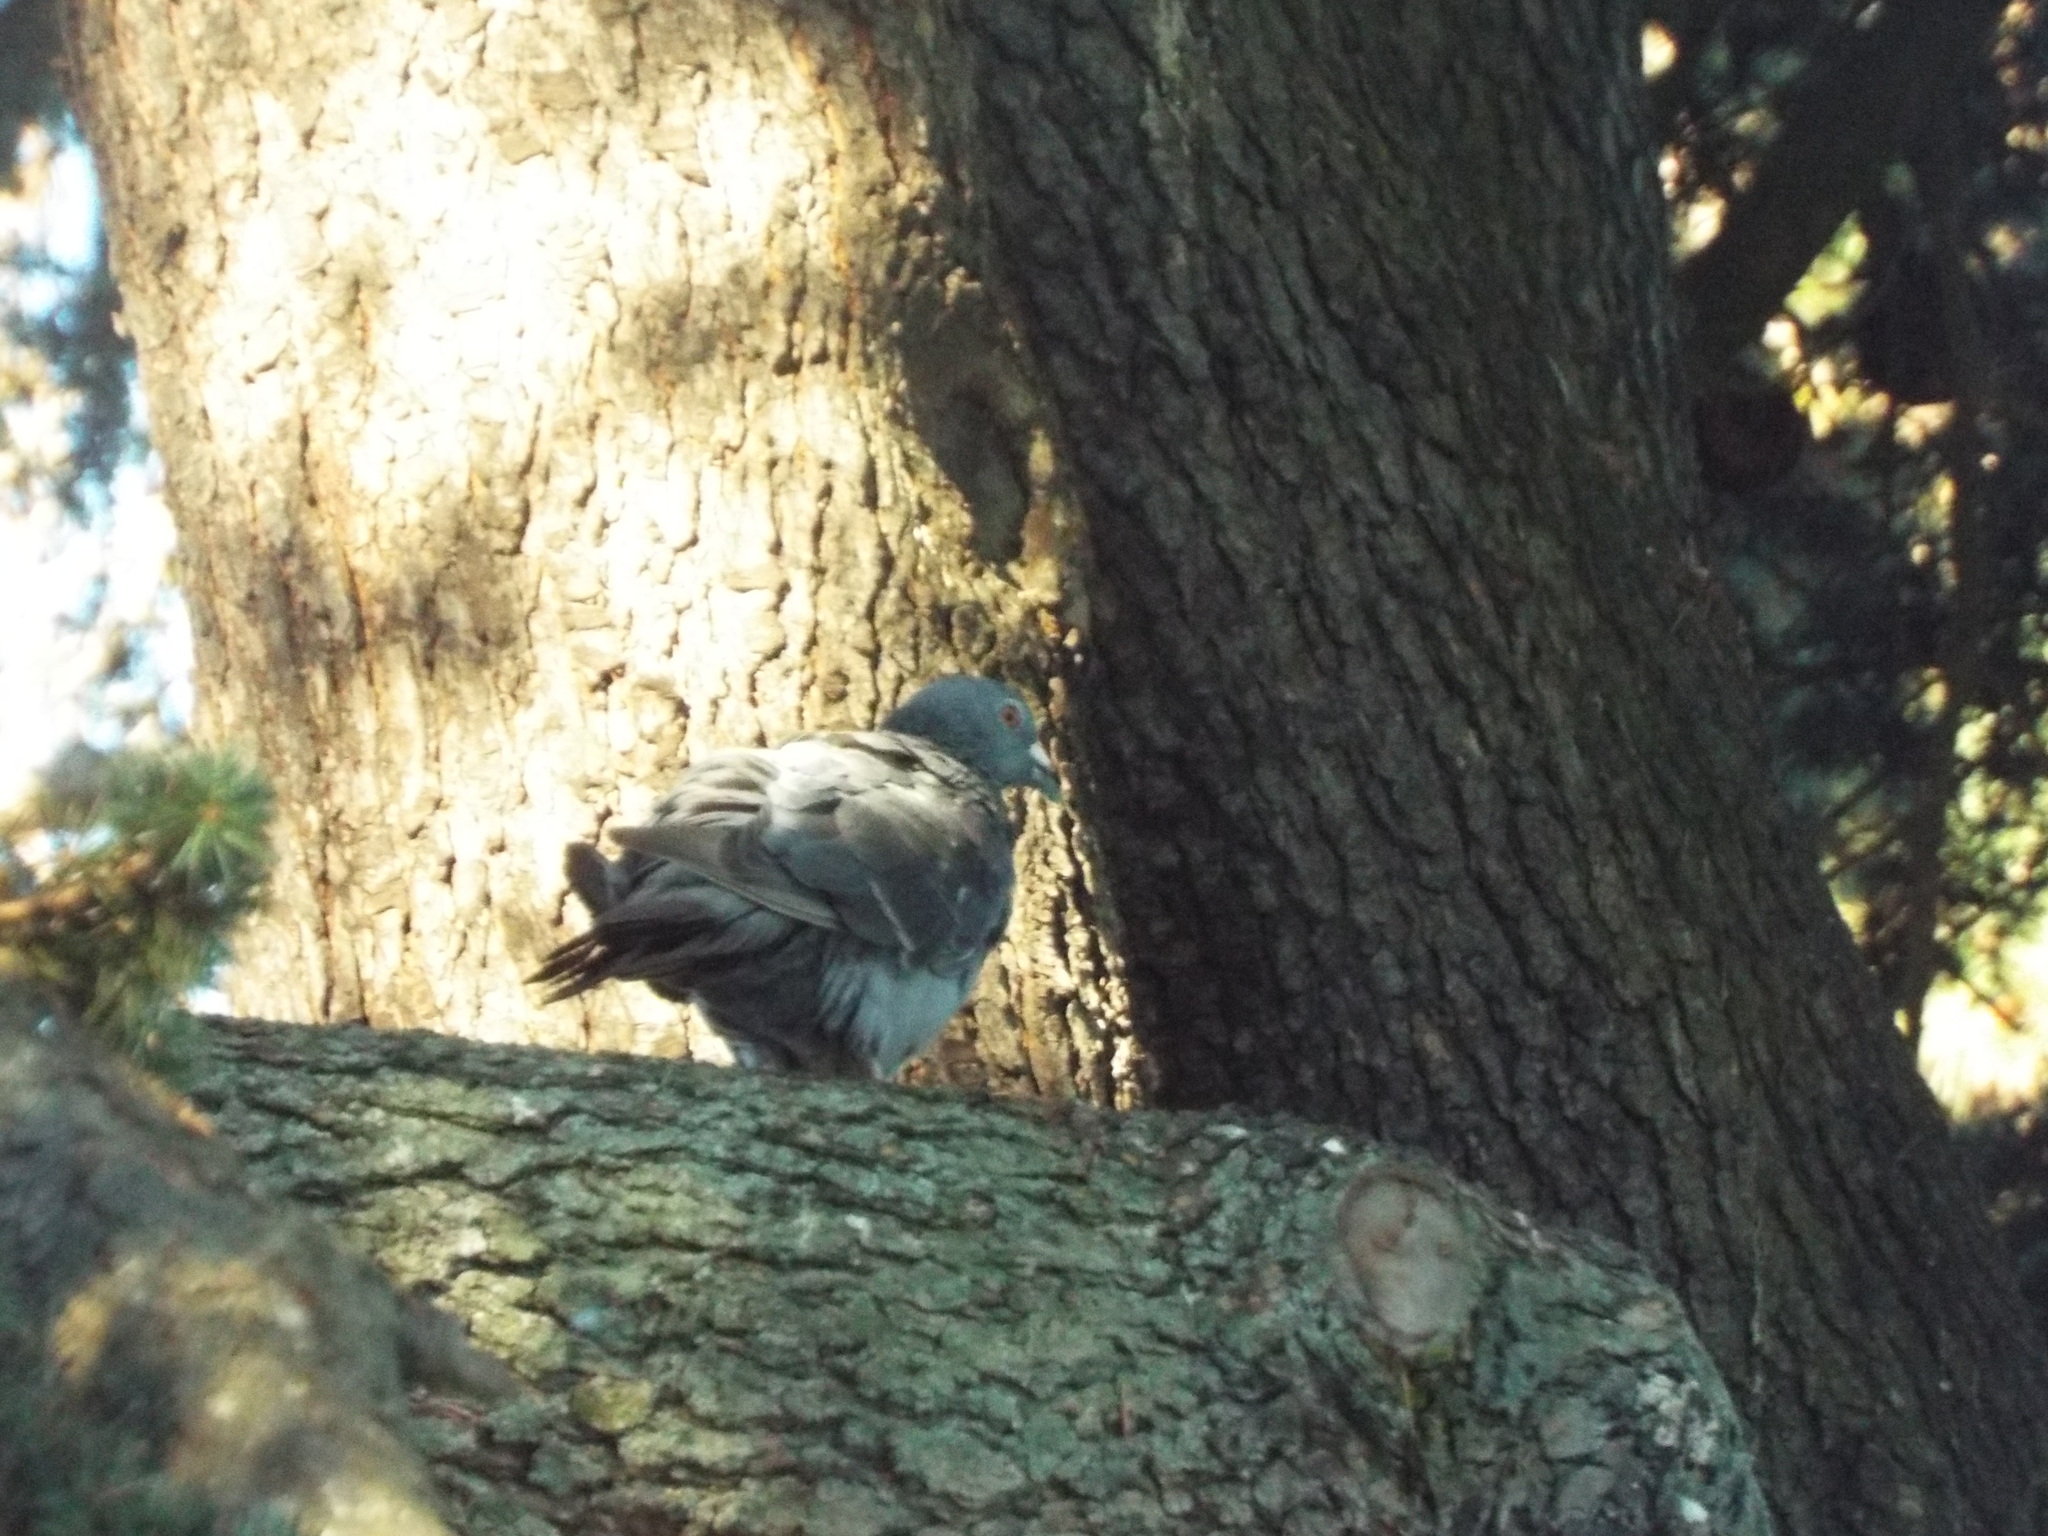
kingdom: Animalia
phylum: Chordata
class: Aves
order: Columbiformes
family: Columbidae
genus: Columba
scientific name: Columba livia
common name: Rock pigeon
